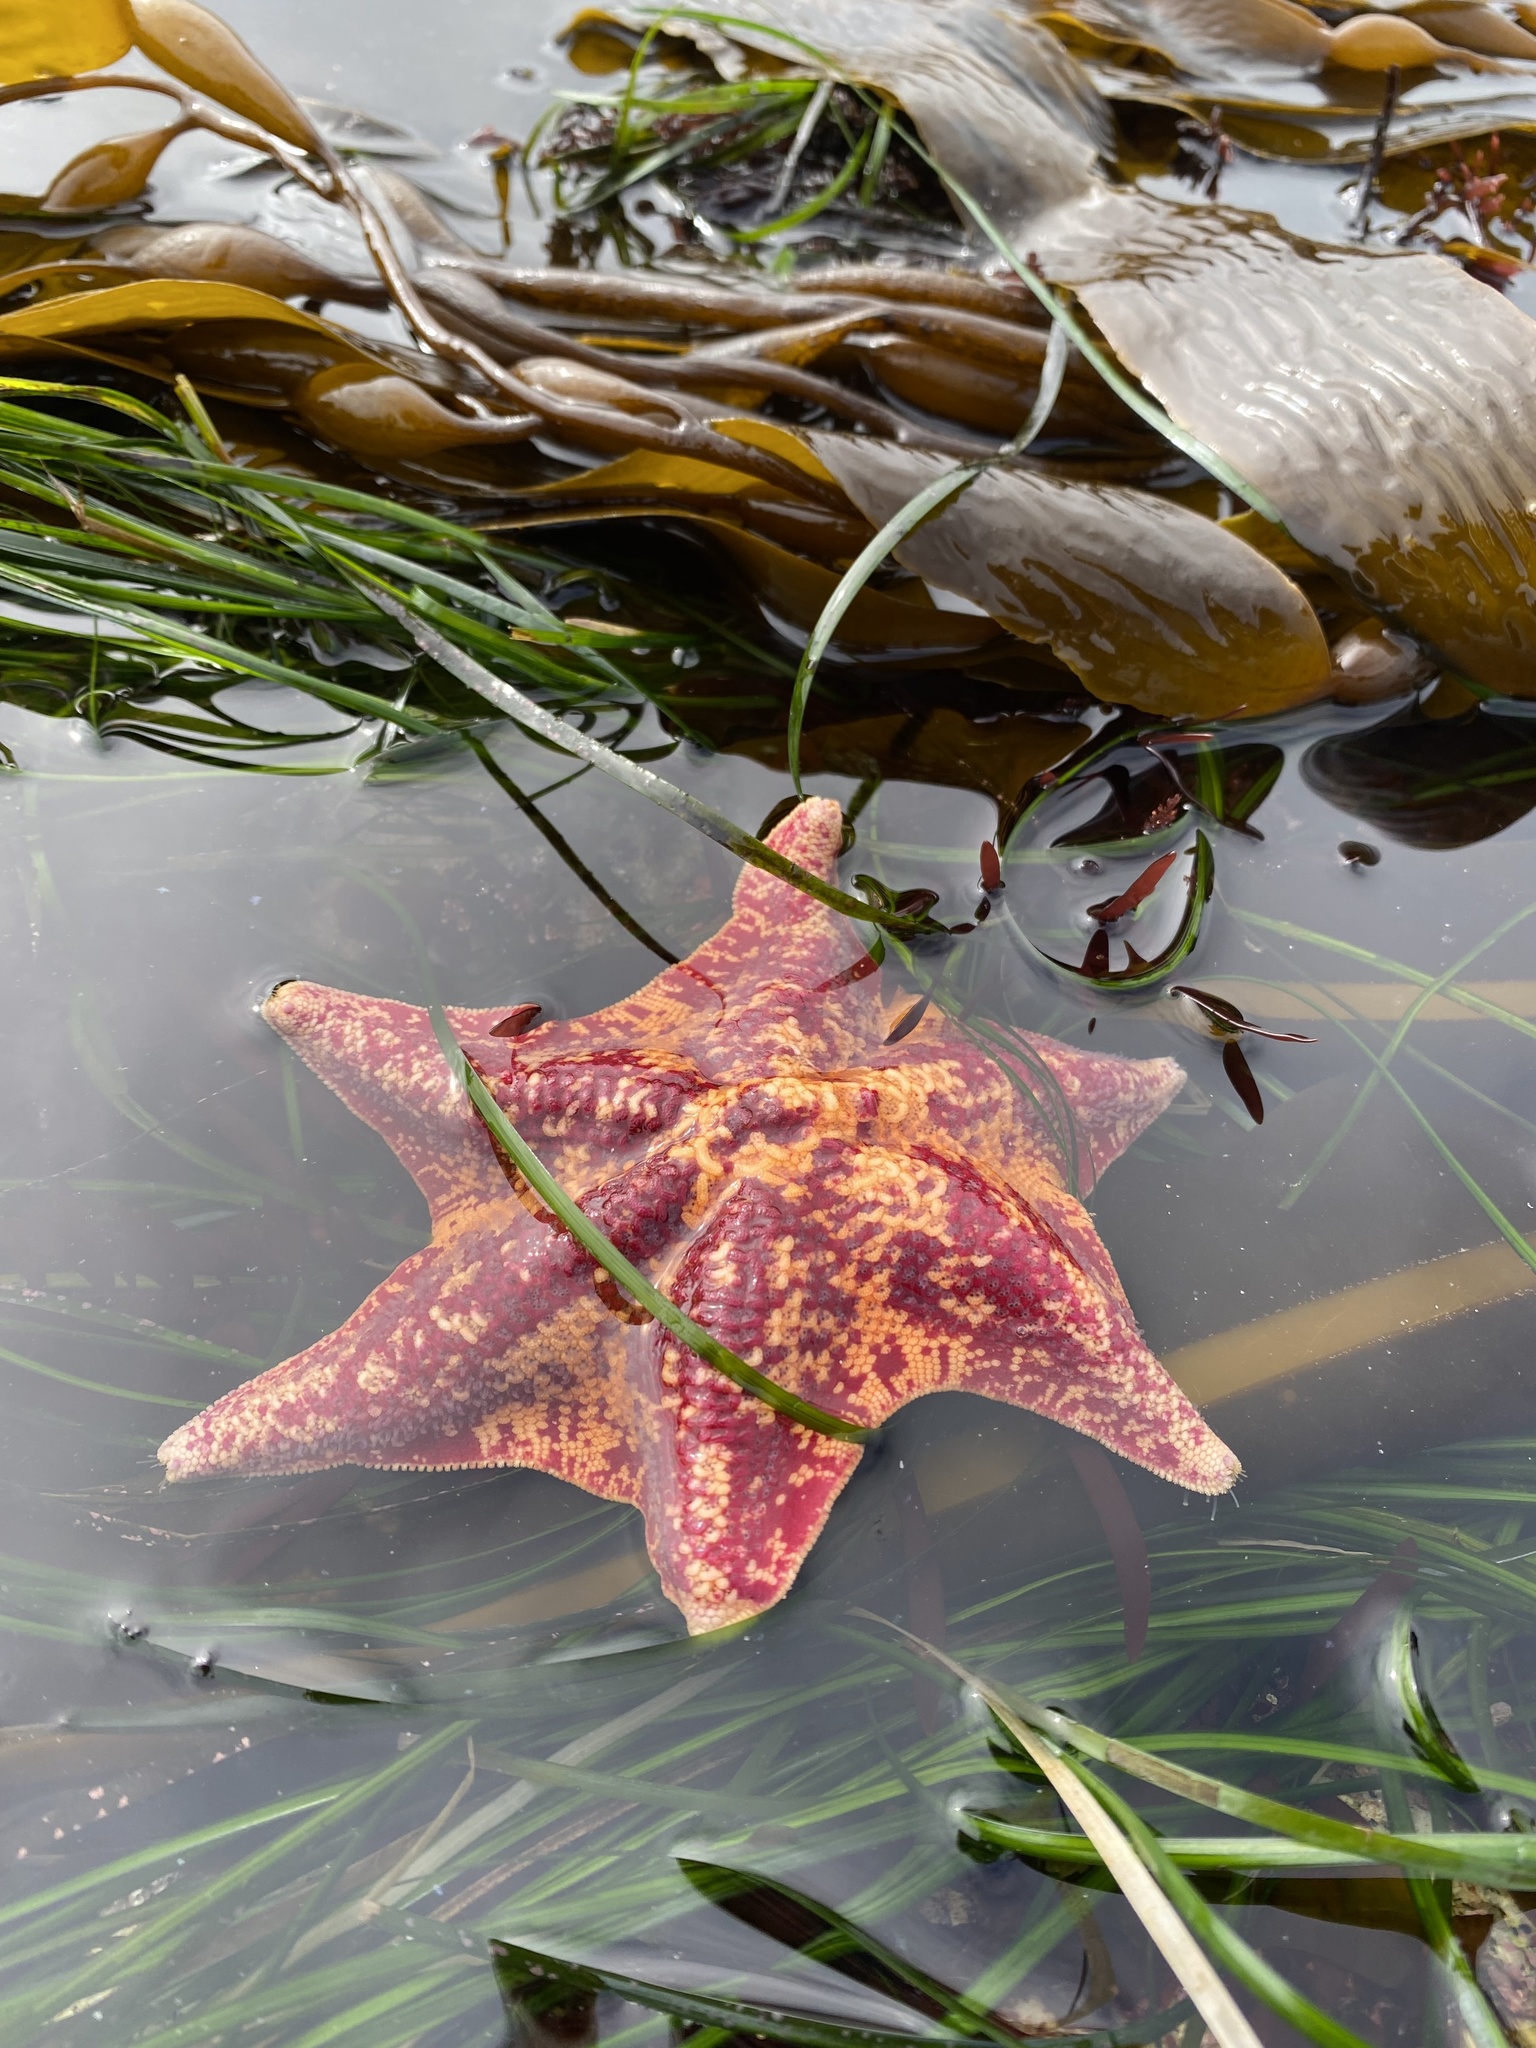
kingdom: Animalia
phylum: Echinodermata
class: Asteroidea
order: Valvatida
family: Asterinidae
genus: Patiria
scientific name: Patiria miniata
